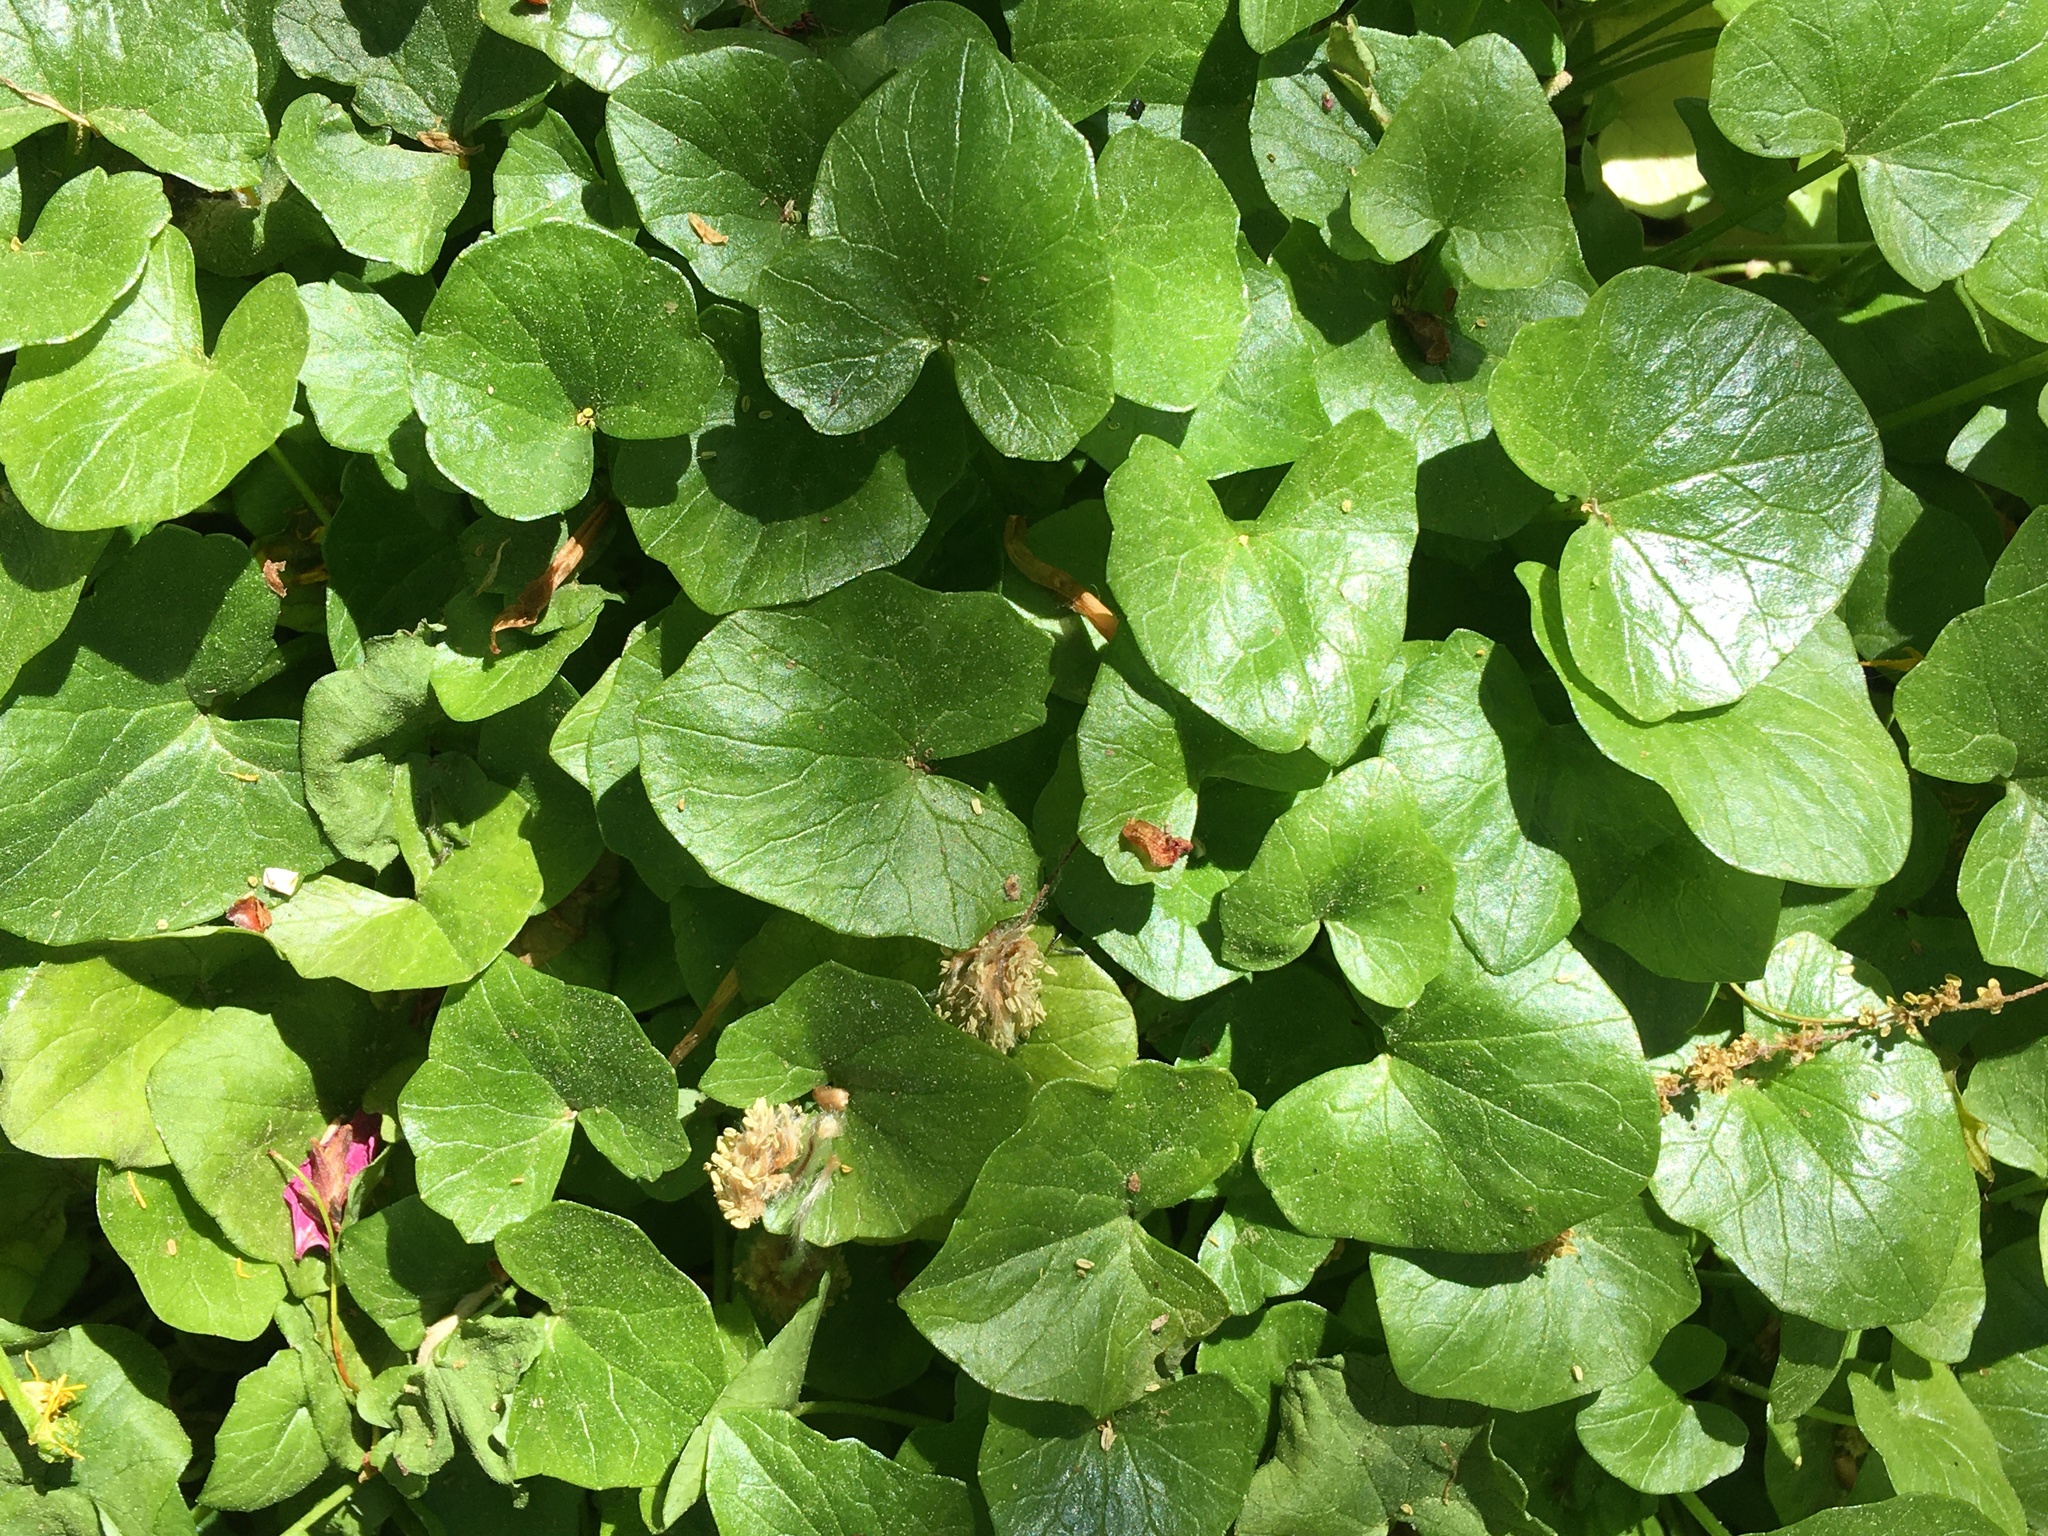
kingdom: Plantae
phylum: Tracheophyta
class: Magnoliopsida
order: Ranunculales
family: Ranunculaceae
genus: Ficaria
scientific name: Ficaria verna
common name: Lesser celandine
